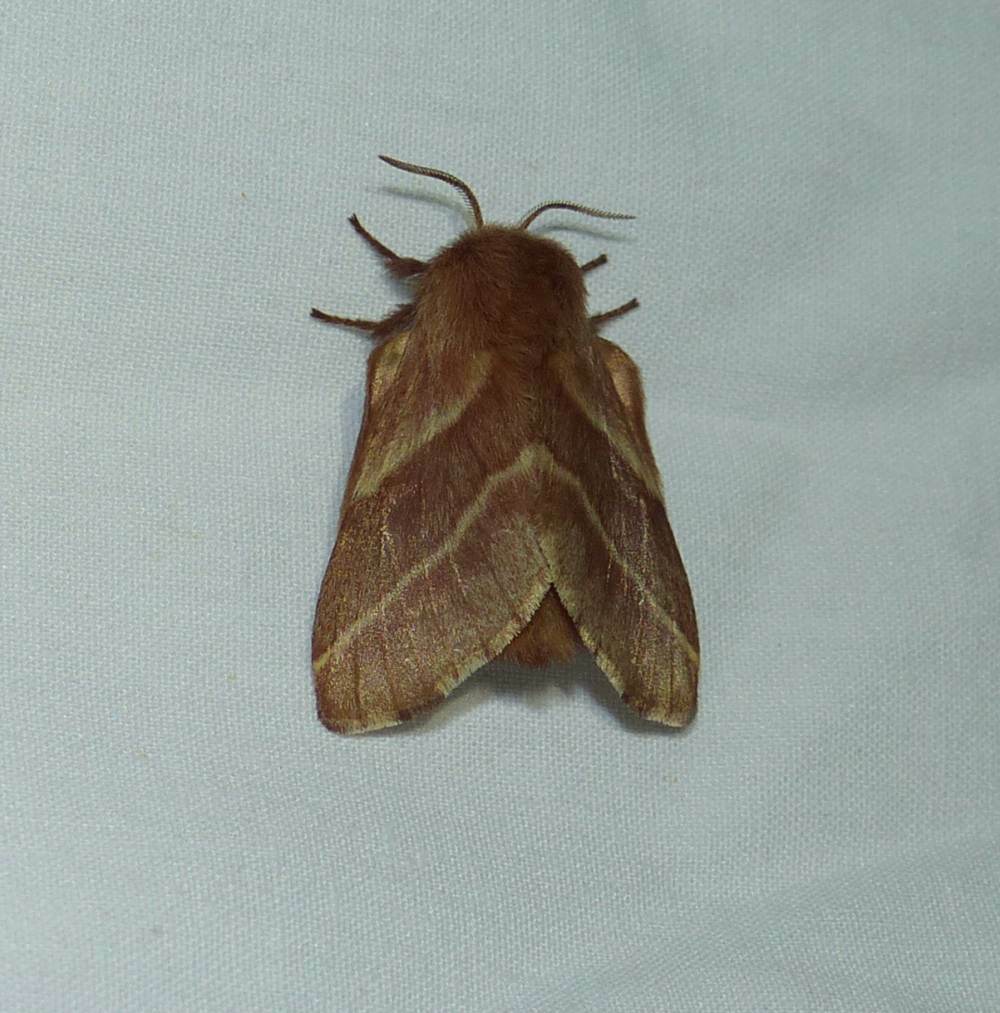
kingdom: Animalia
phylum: Arthropoda
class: Insecta
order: Lepidoptera
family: Lasiocampidae
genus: Malacosoma
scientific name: Malacosoma americana
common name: Eastern tent caterpillar moth
